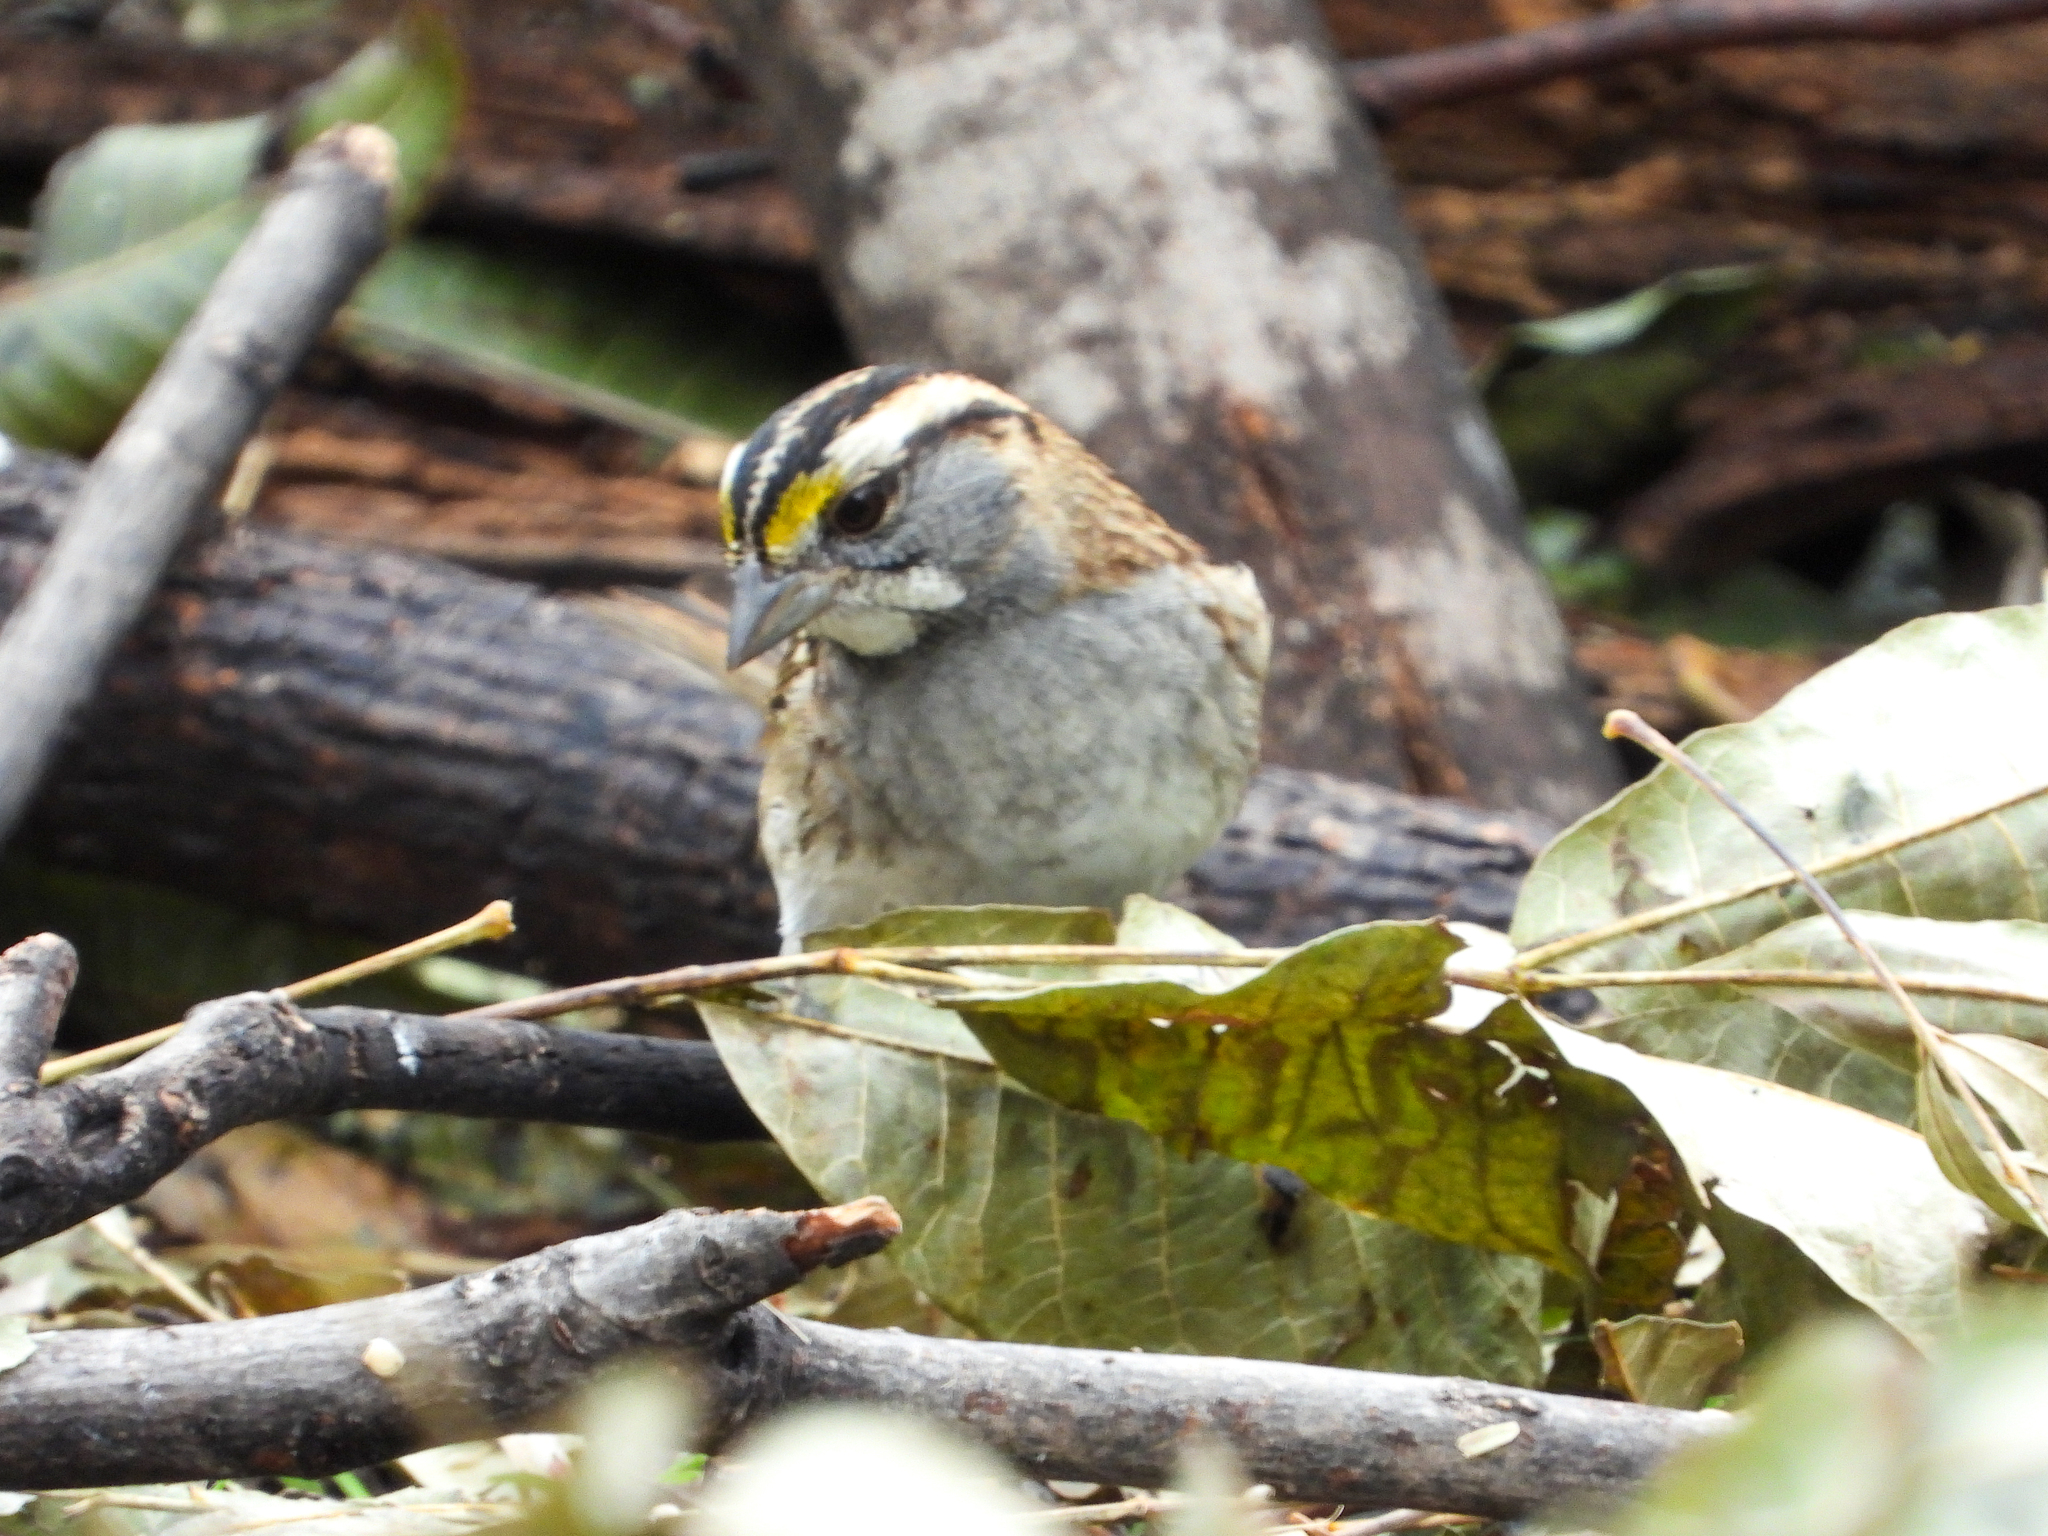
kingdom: Animalia
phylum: Chordata
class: Aves
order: Passeriformes
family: Passerellidae
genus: Zonotrichia
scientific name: Zonotrichia albicollis
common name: White-throated sparrow
